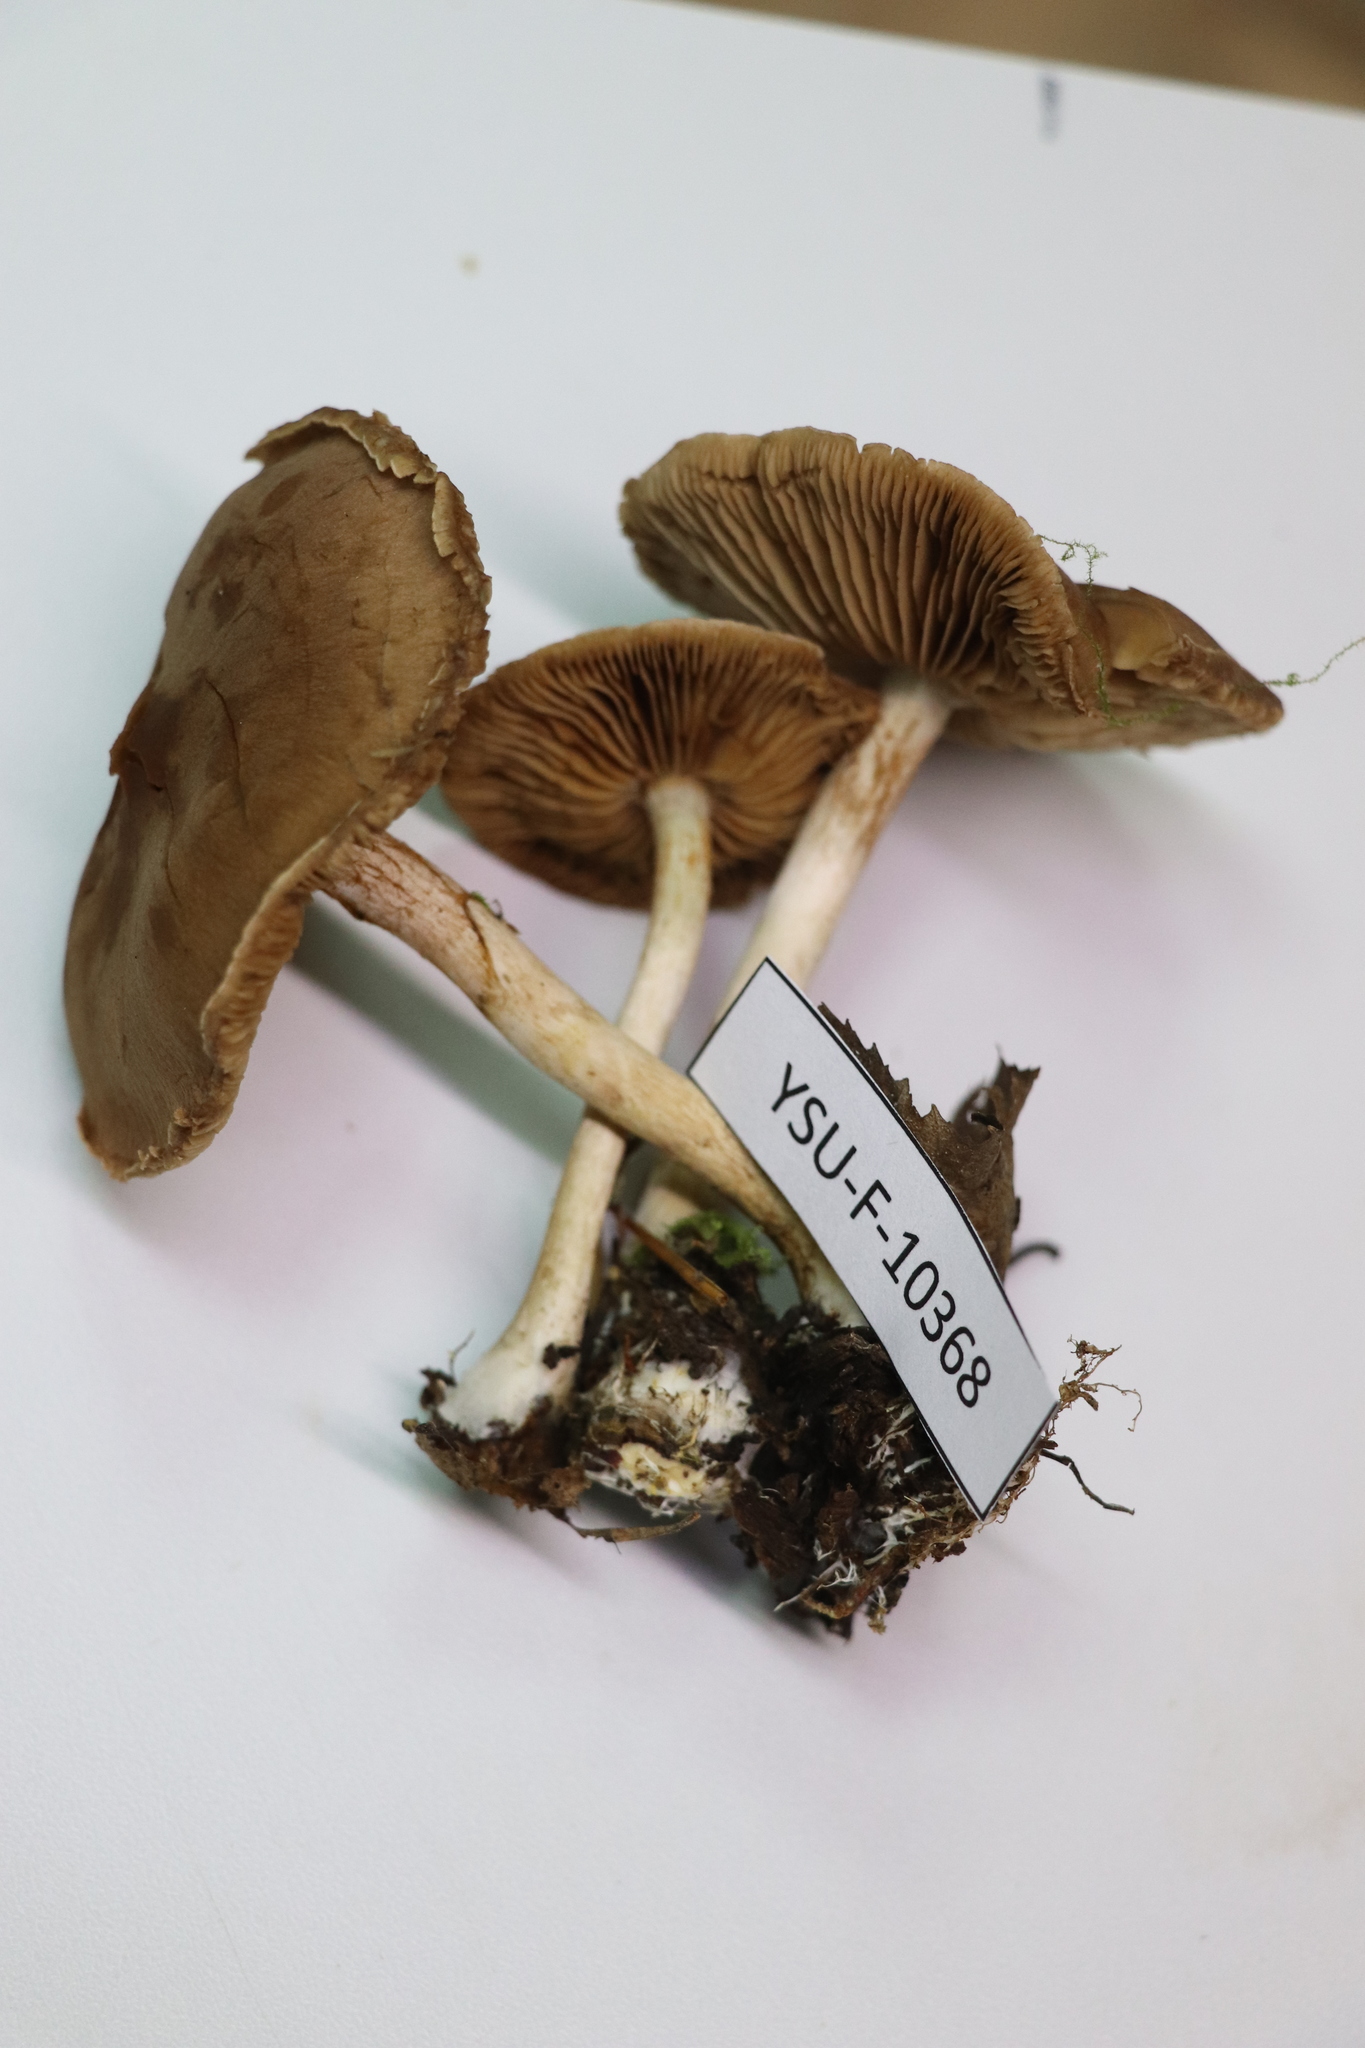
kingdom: Fungi
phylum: Basidiomycota
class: Agaricomycetes
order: Agaricales
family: Cortinariaceae
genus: Cortinarius
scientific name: Cortinarius anomalus
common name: Variable webcap
